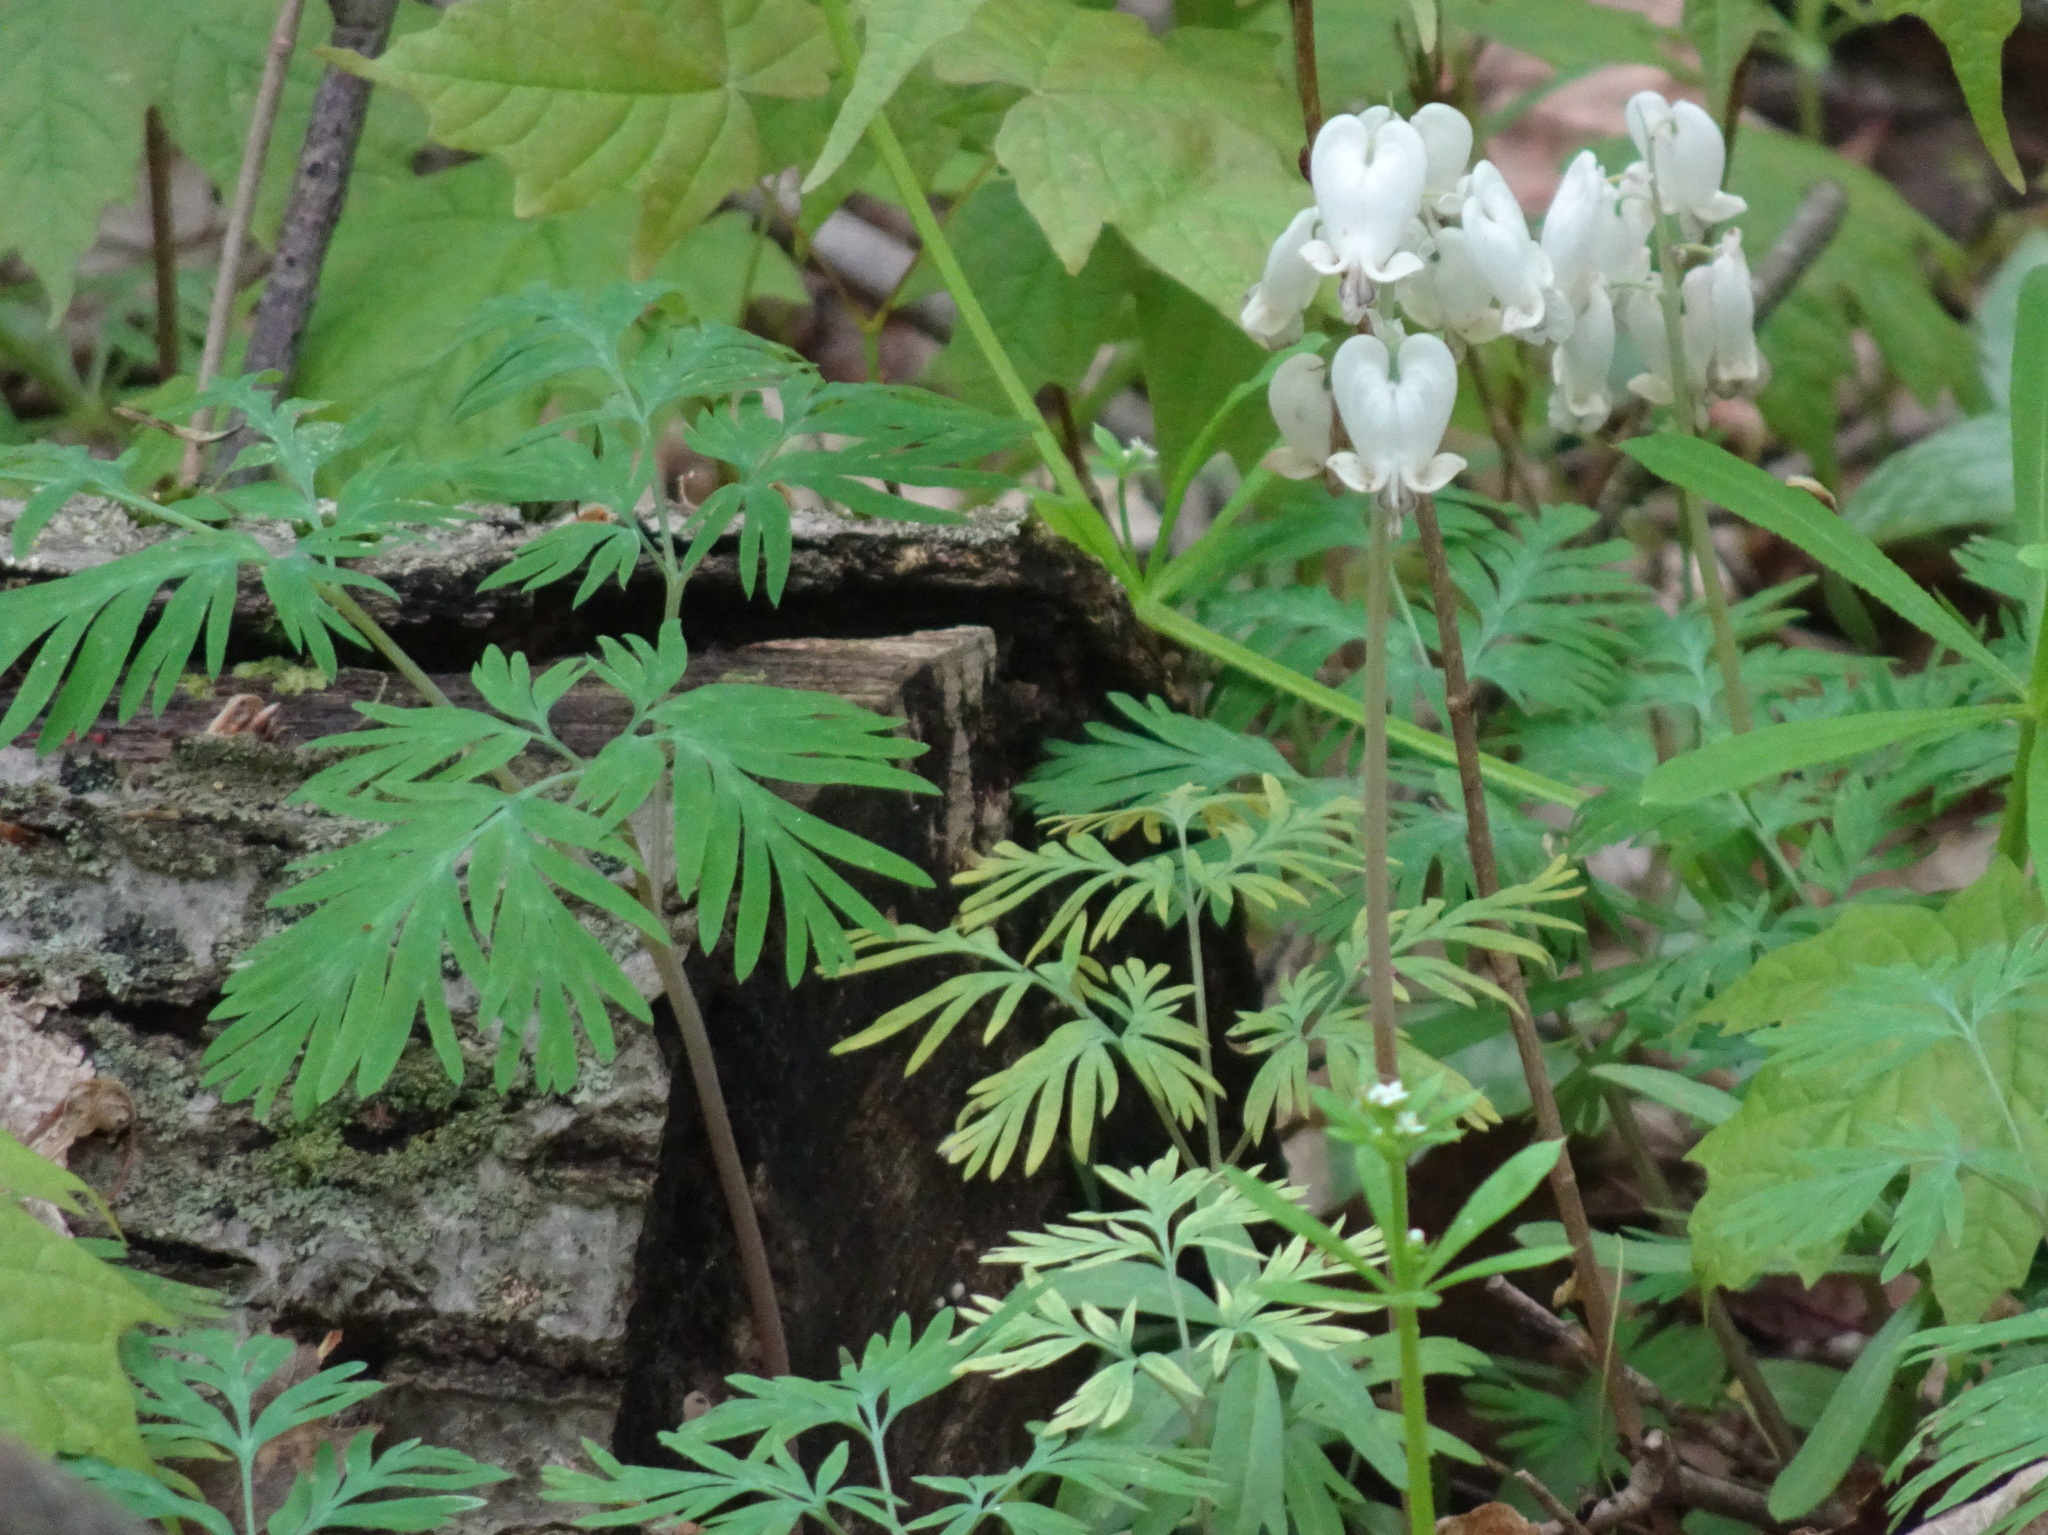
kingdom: Plantae
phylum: Tracheophyta
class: Magnoliopsida
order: Ranunculales
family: Papaveraceae
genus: Dicentra
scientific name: Dicentra canadensis
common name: Squirrel-corn
